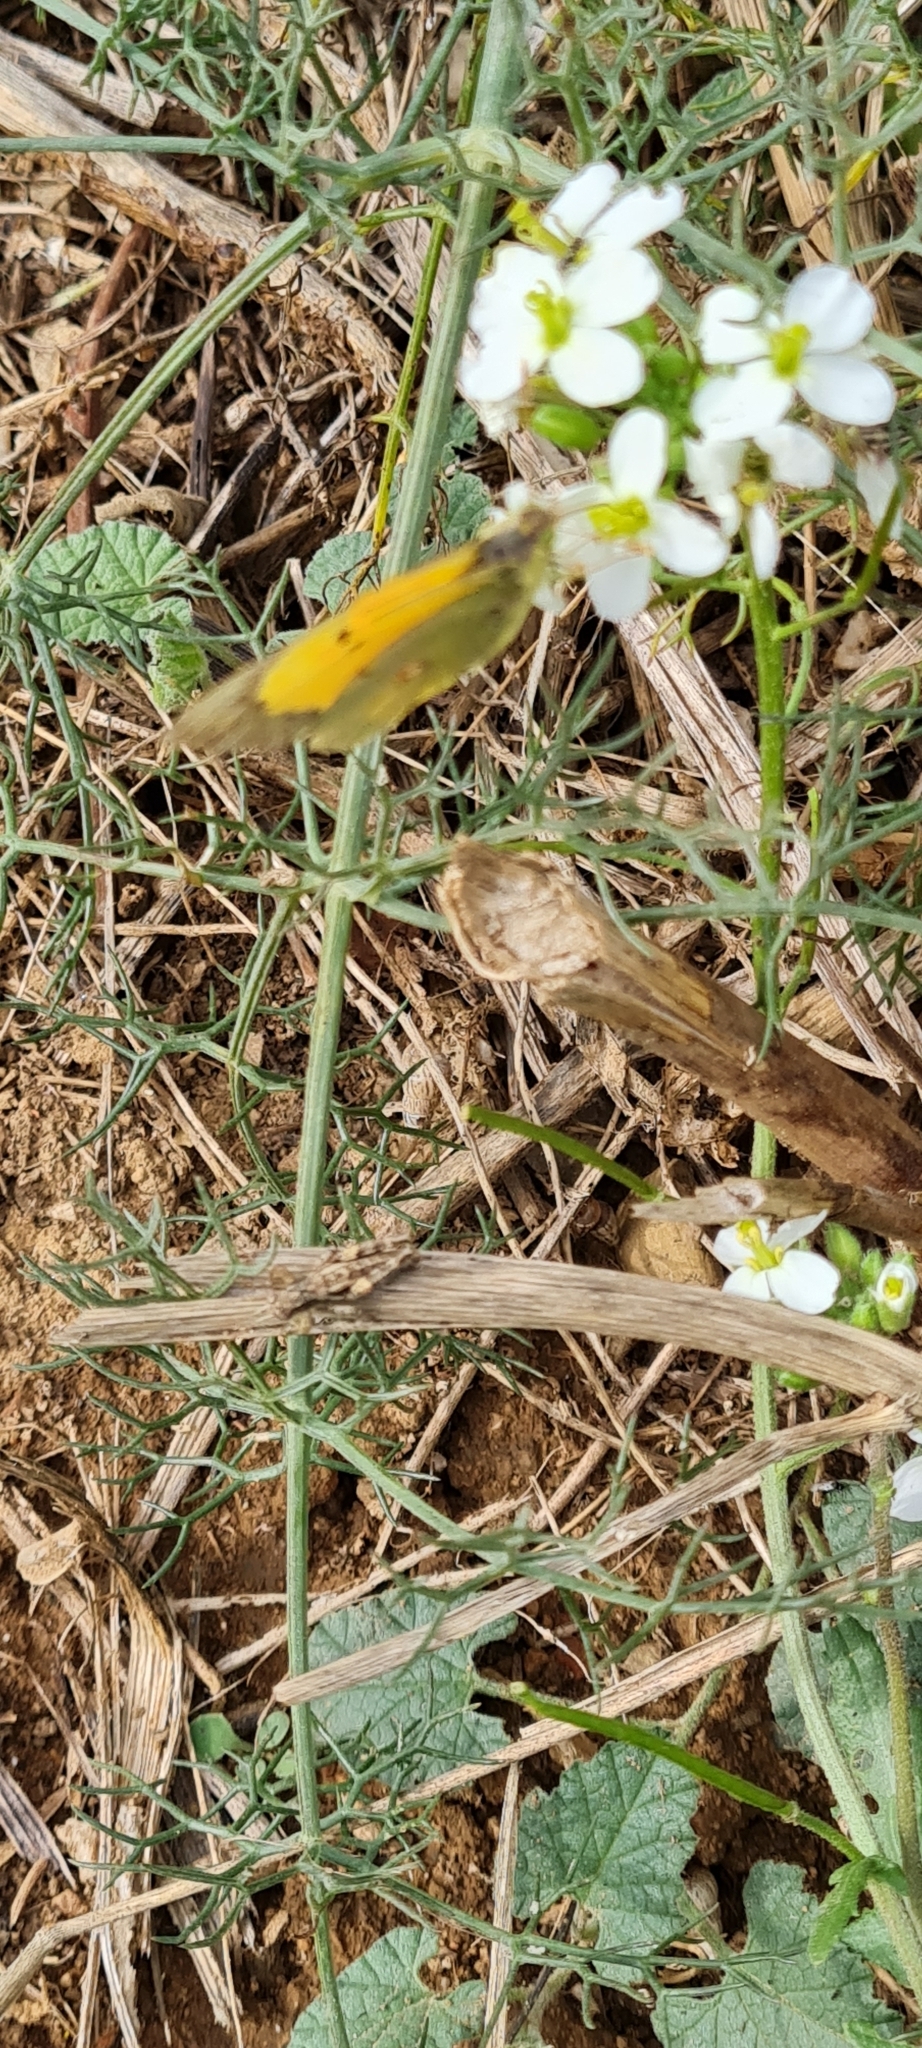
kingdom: Animalia
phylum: Arthropoda
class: Insecta
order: Lepidoptera
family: Pieridae
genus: Colias
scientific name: Colias croceus
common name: Clouded yellow
